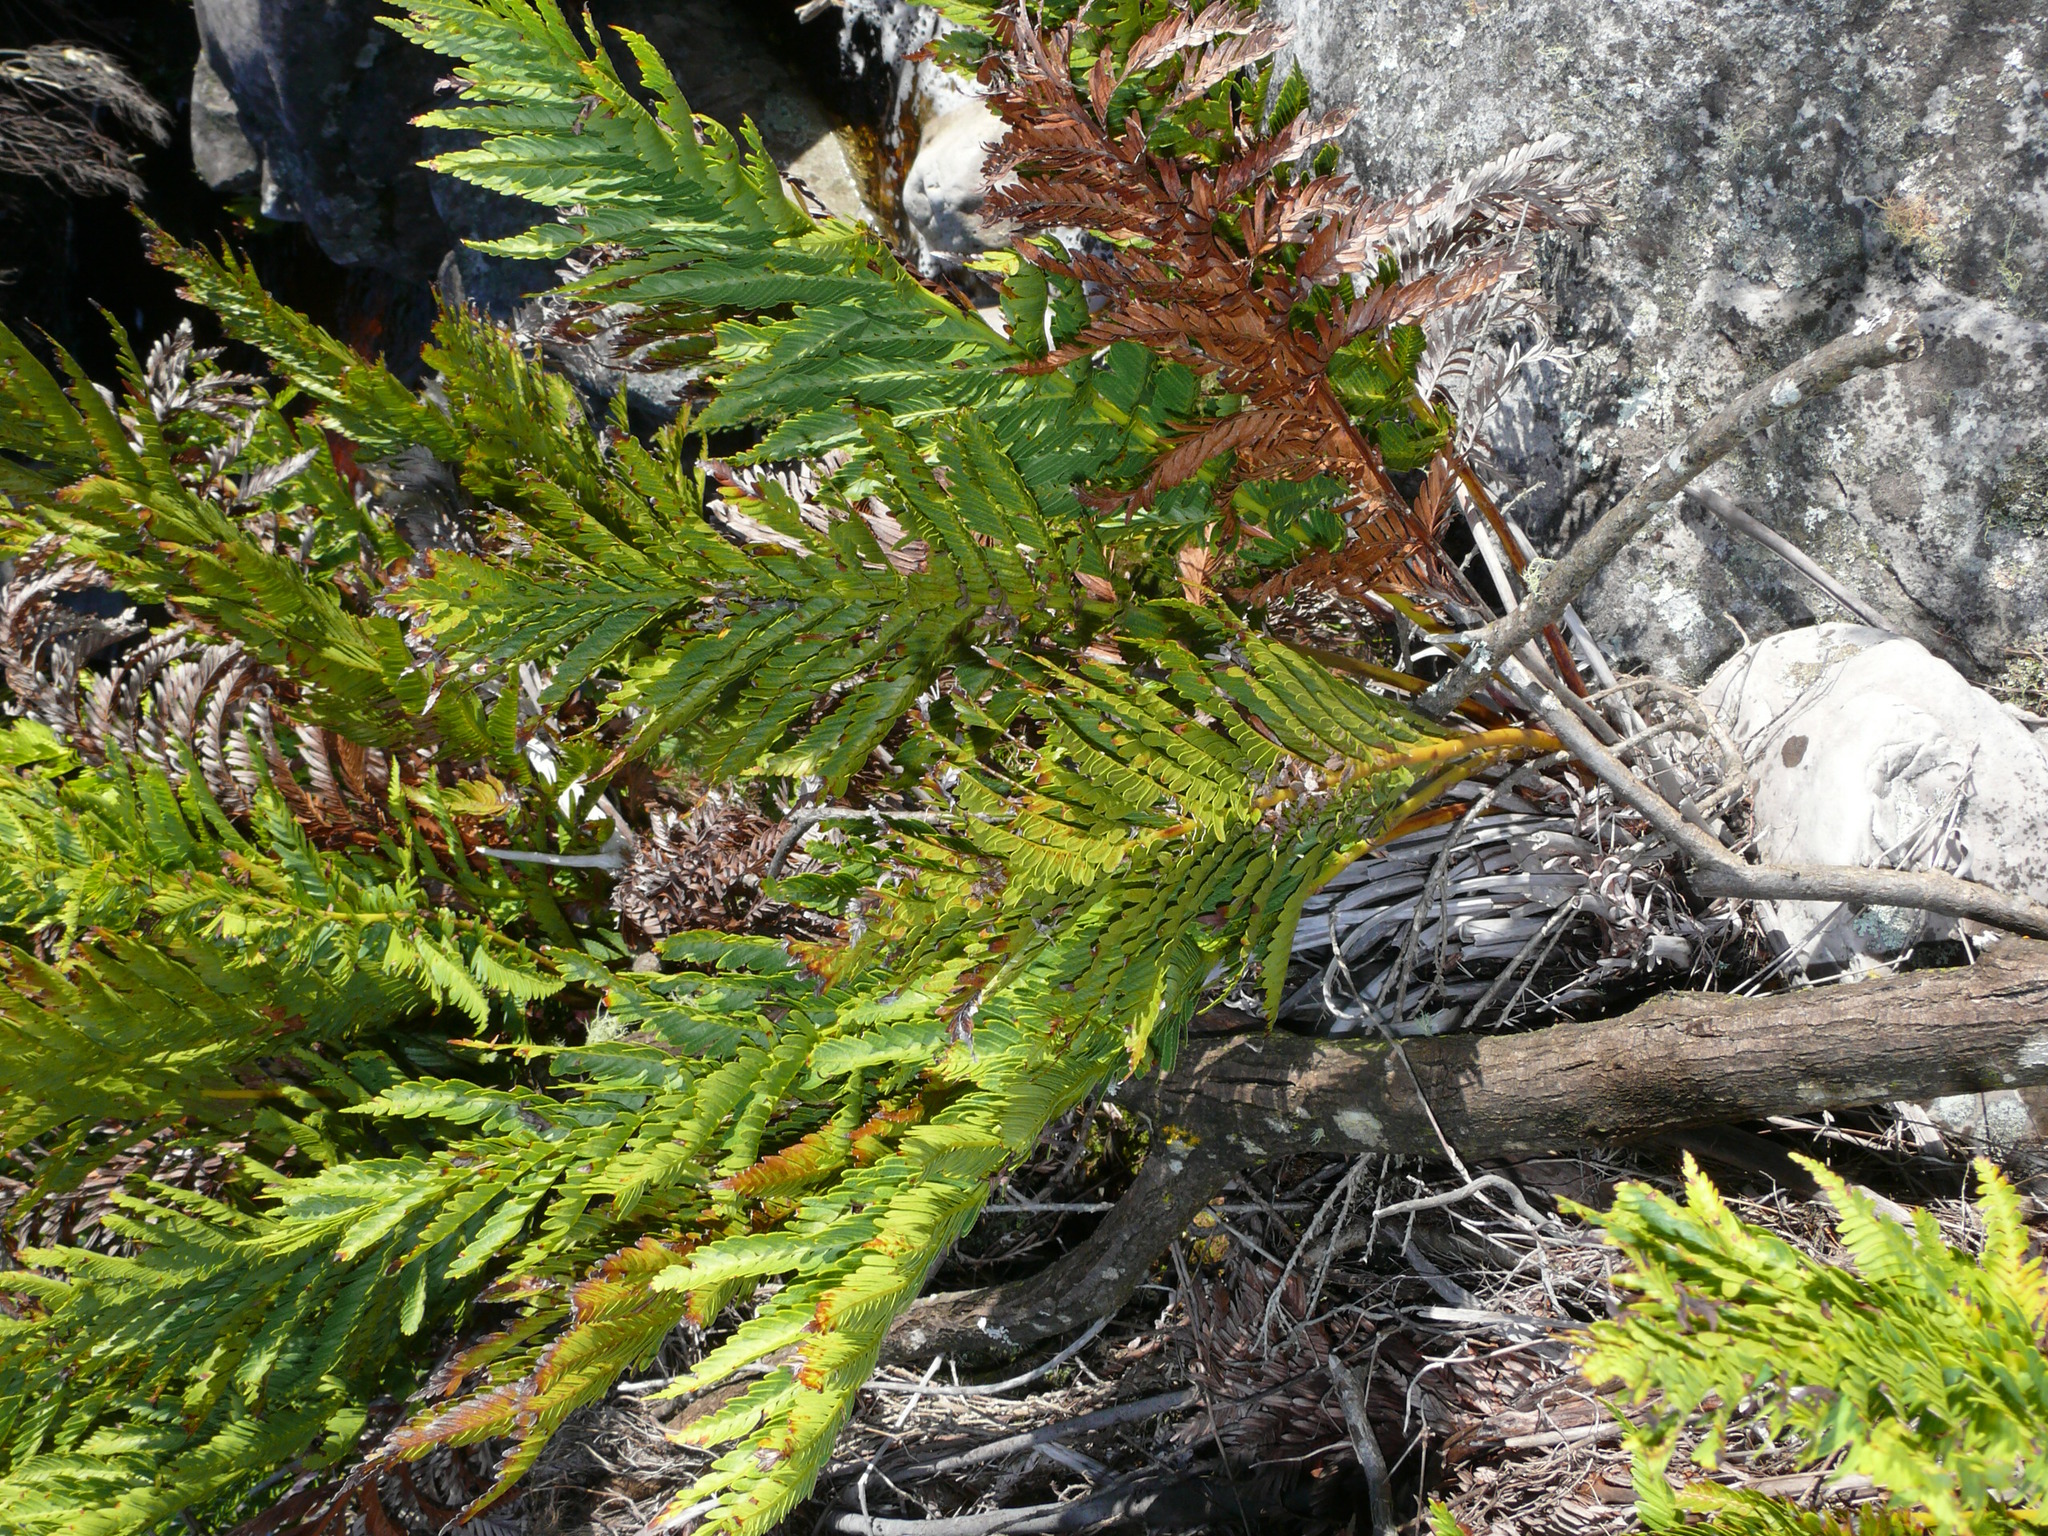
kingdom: Plantae
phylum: Tracheophyta
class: Polypodiopsida
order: Osmundales
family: Osmundaceae
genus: Todea
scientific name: Todea barbara
